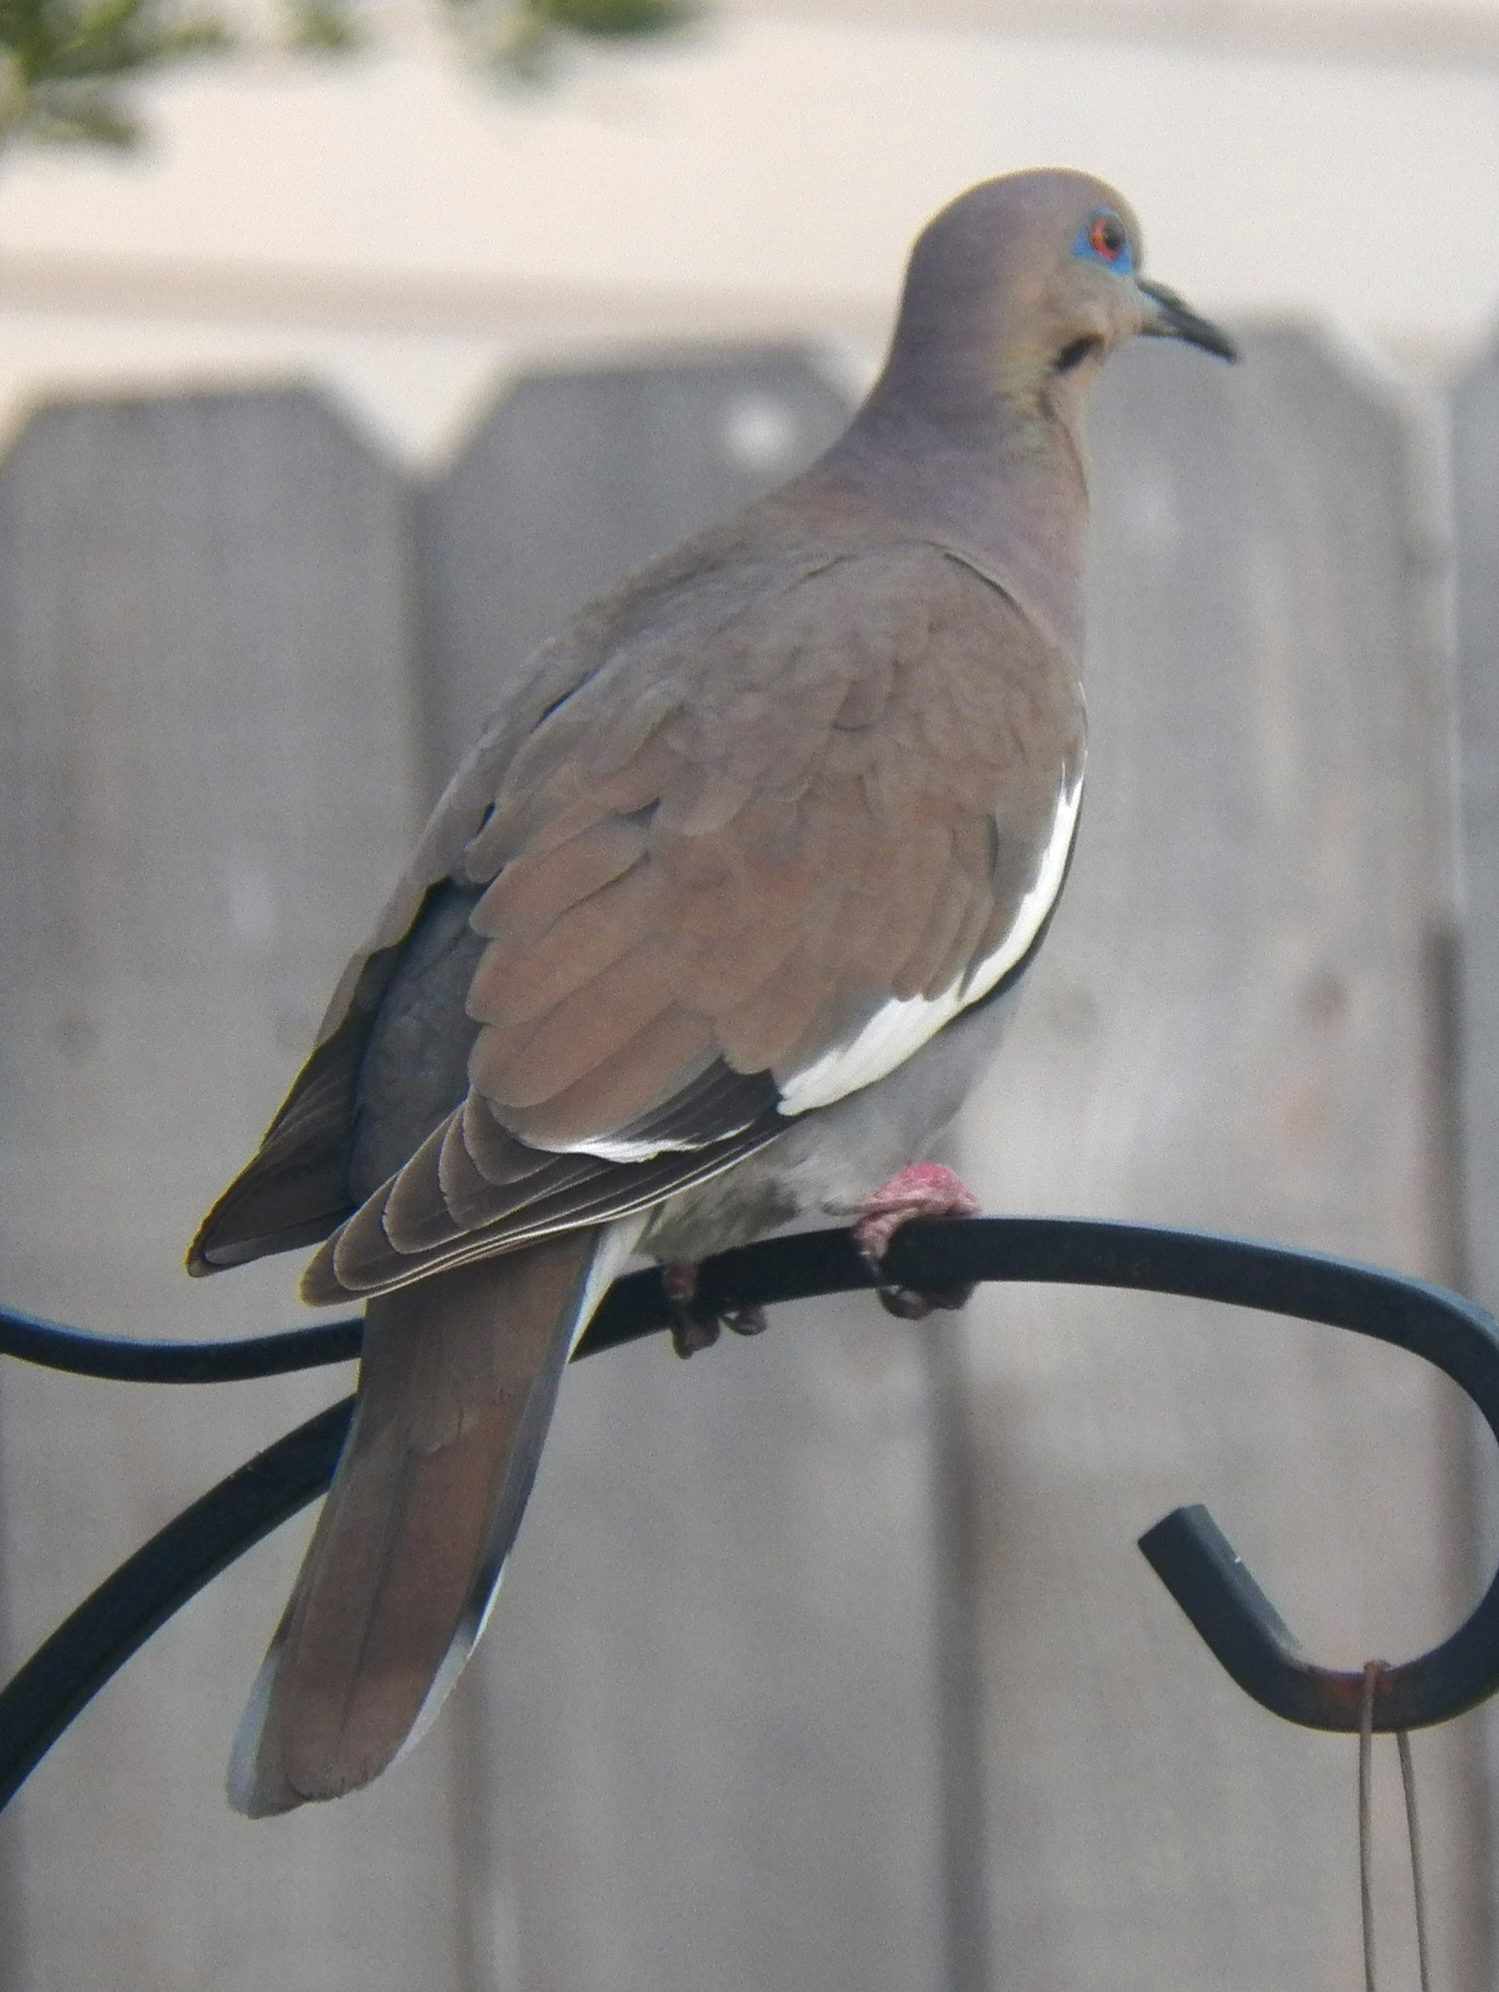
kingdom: Animalia
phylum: Chordata
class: Aves
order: Columbiformes
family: Columbidae
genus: Zenaida
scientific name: Zenaida asiatica
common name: White-winged dove
